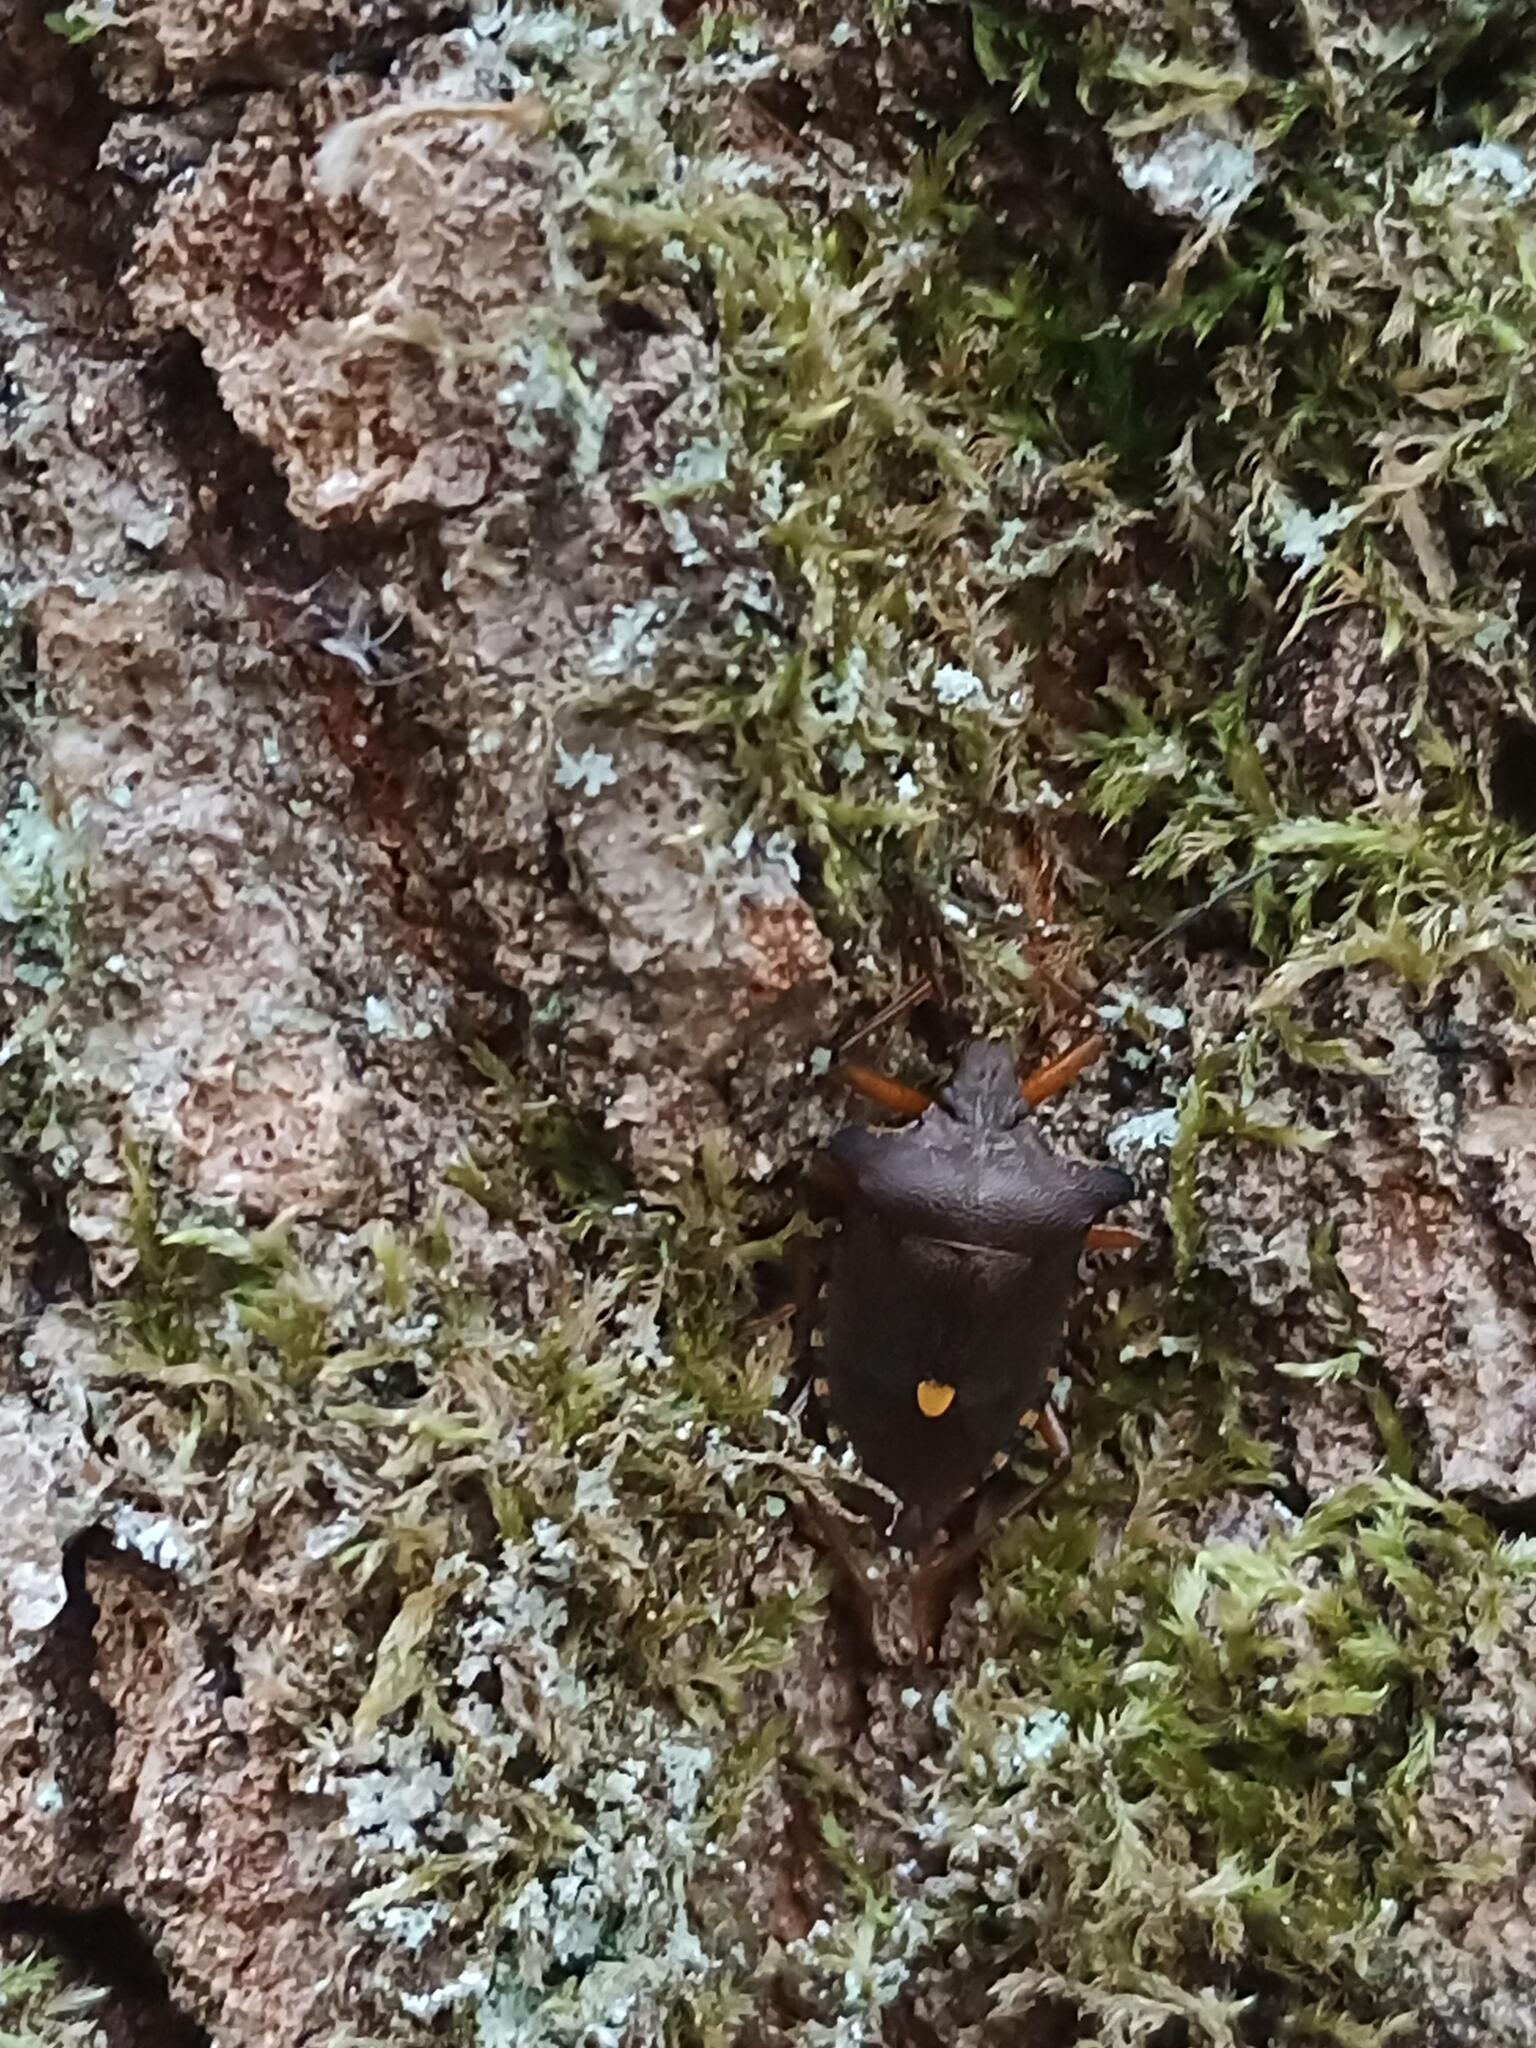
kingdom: Animalia
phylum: Arthropoda
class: Insecta
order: Hemiptera
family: Pentatomidae
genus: Pentatoma
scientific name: Pentatoma rufipes
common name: Forest bug
